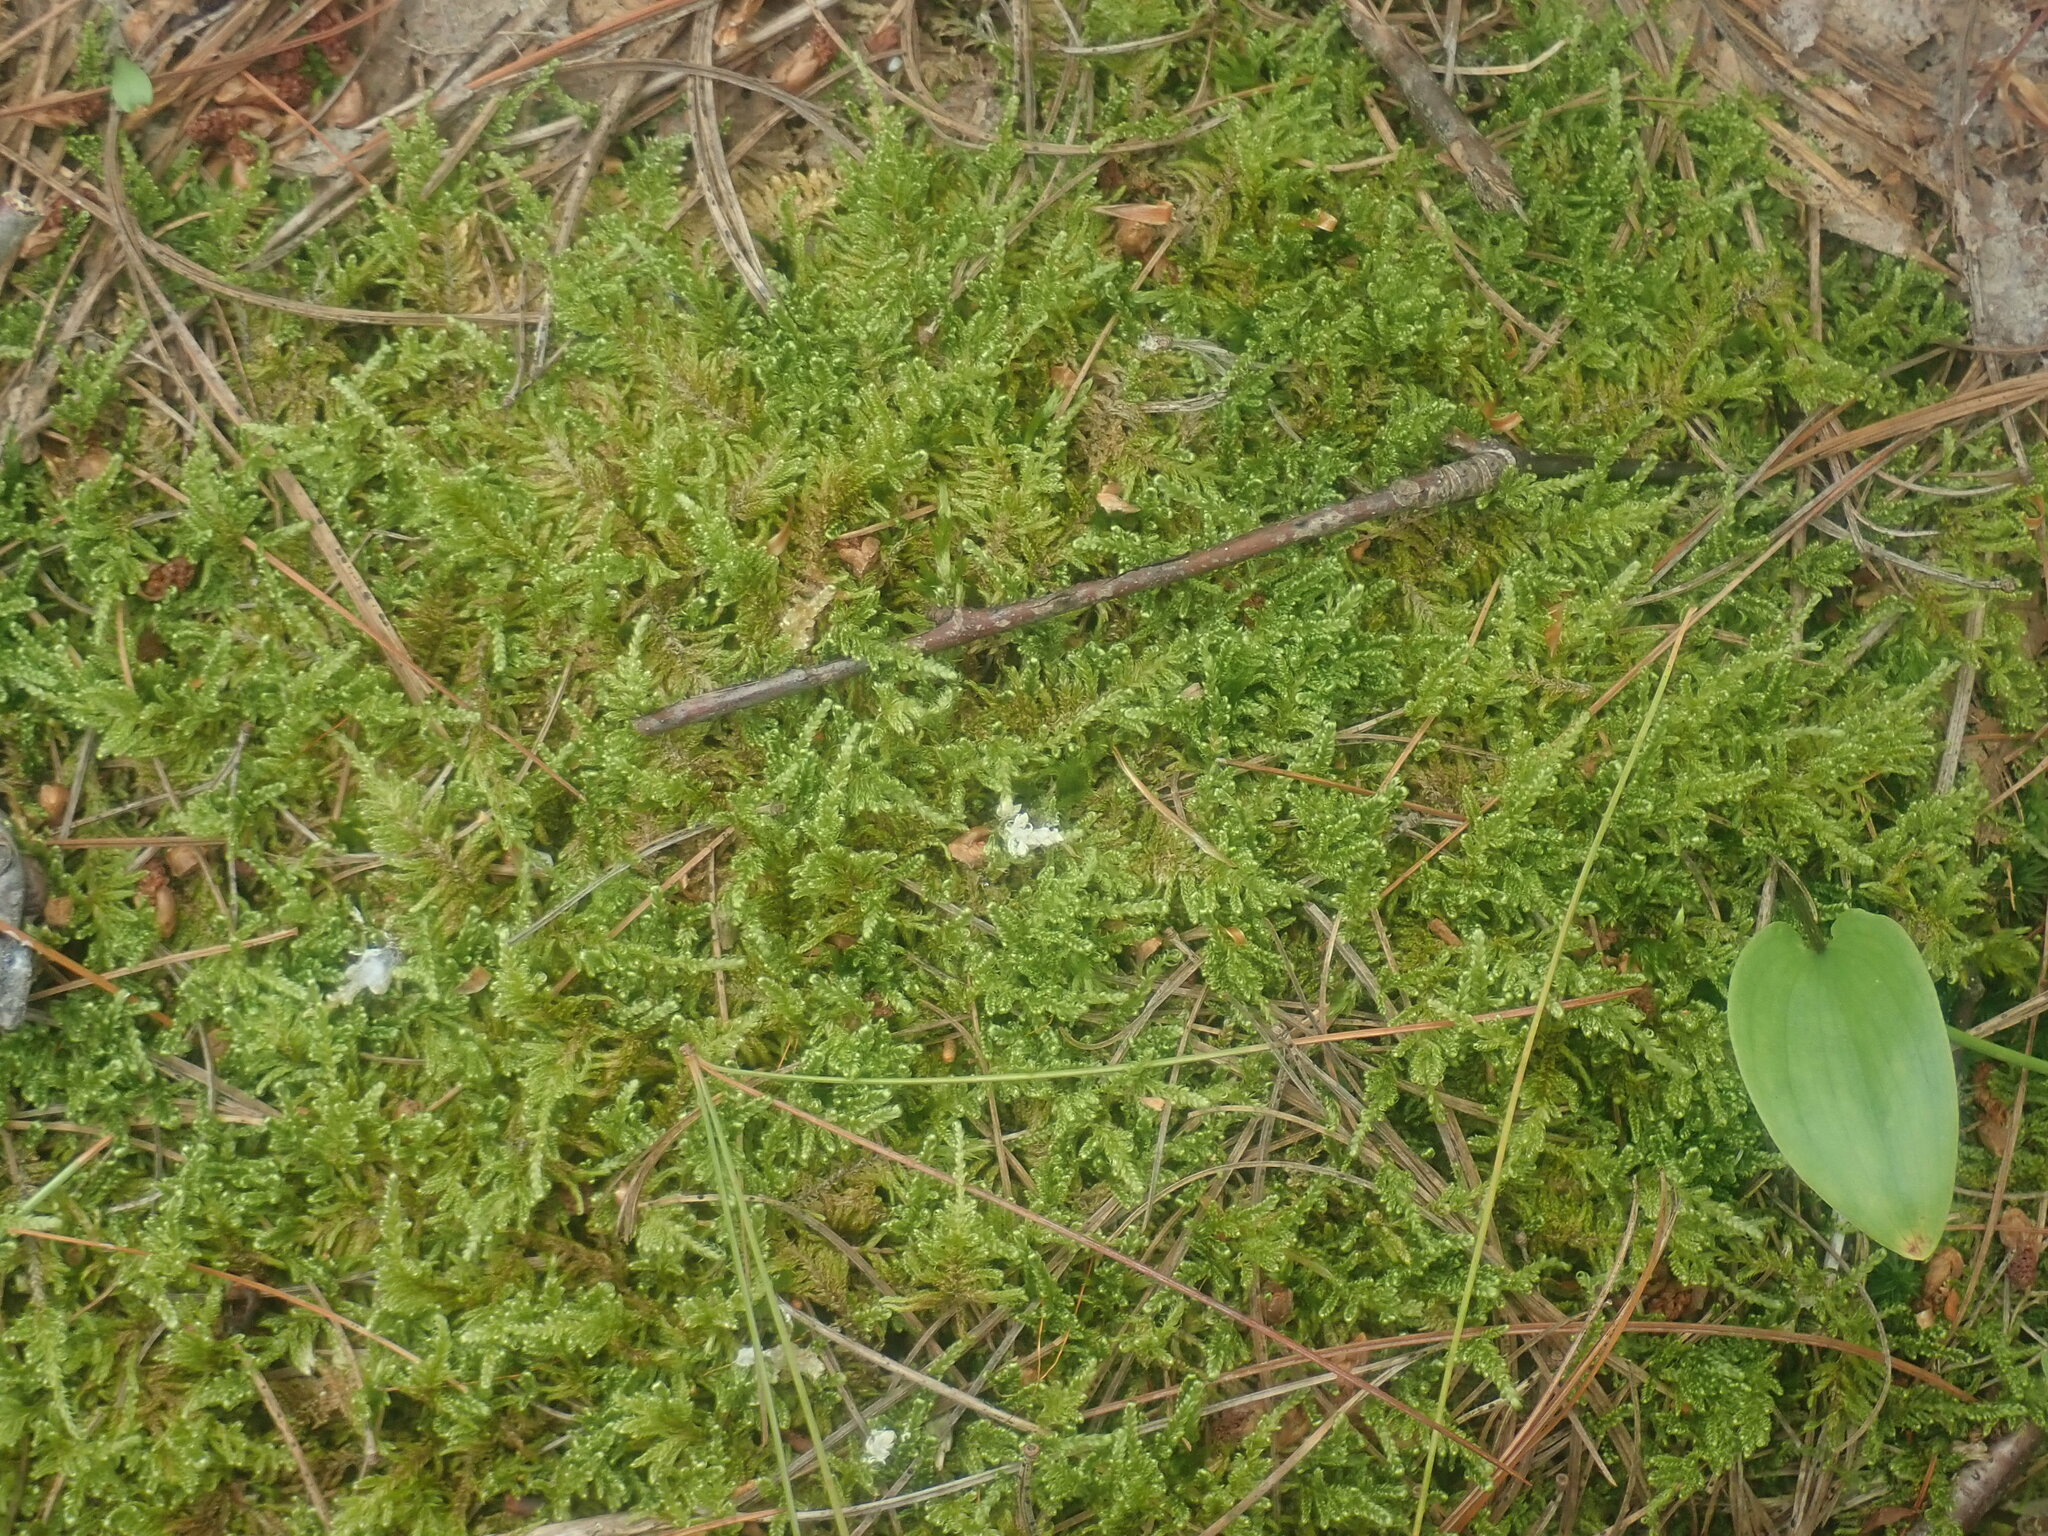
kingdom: Plantae
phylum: Bryophyta
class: Bryopsida
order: Hypnales
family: Callicladiaceae
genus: Callicladium
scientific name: Callicladium imponens
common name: Brocade moss
